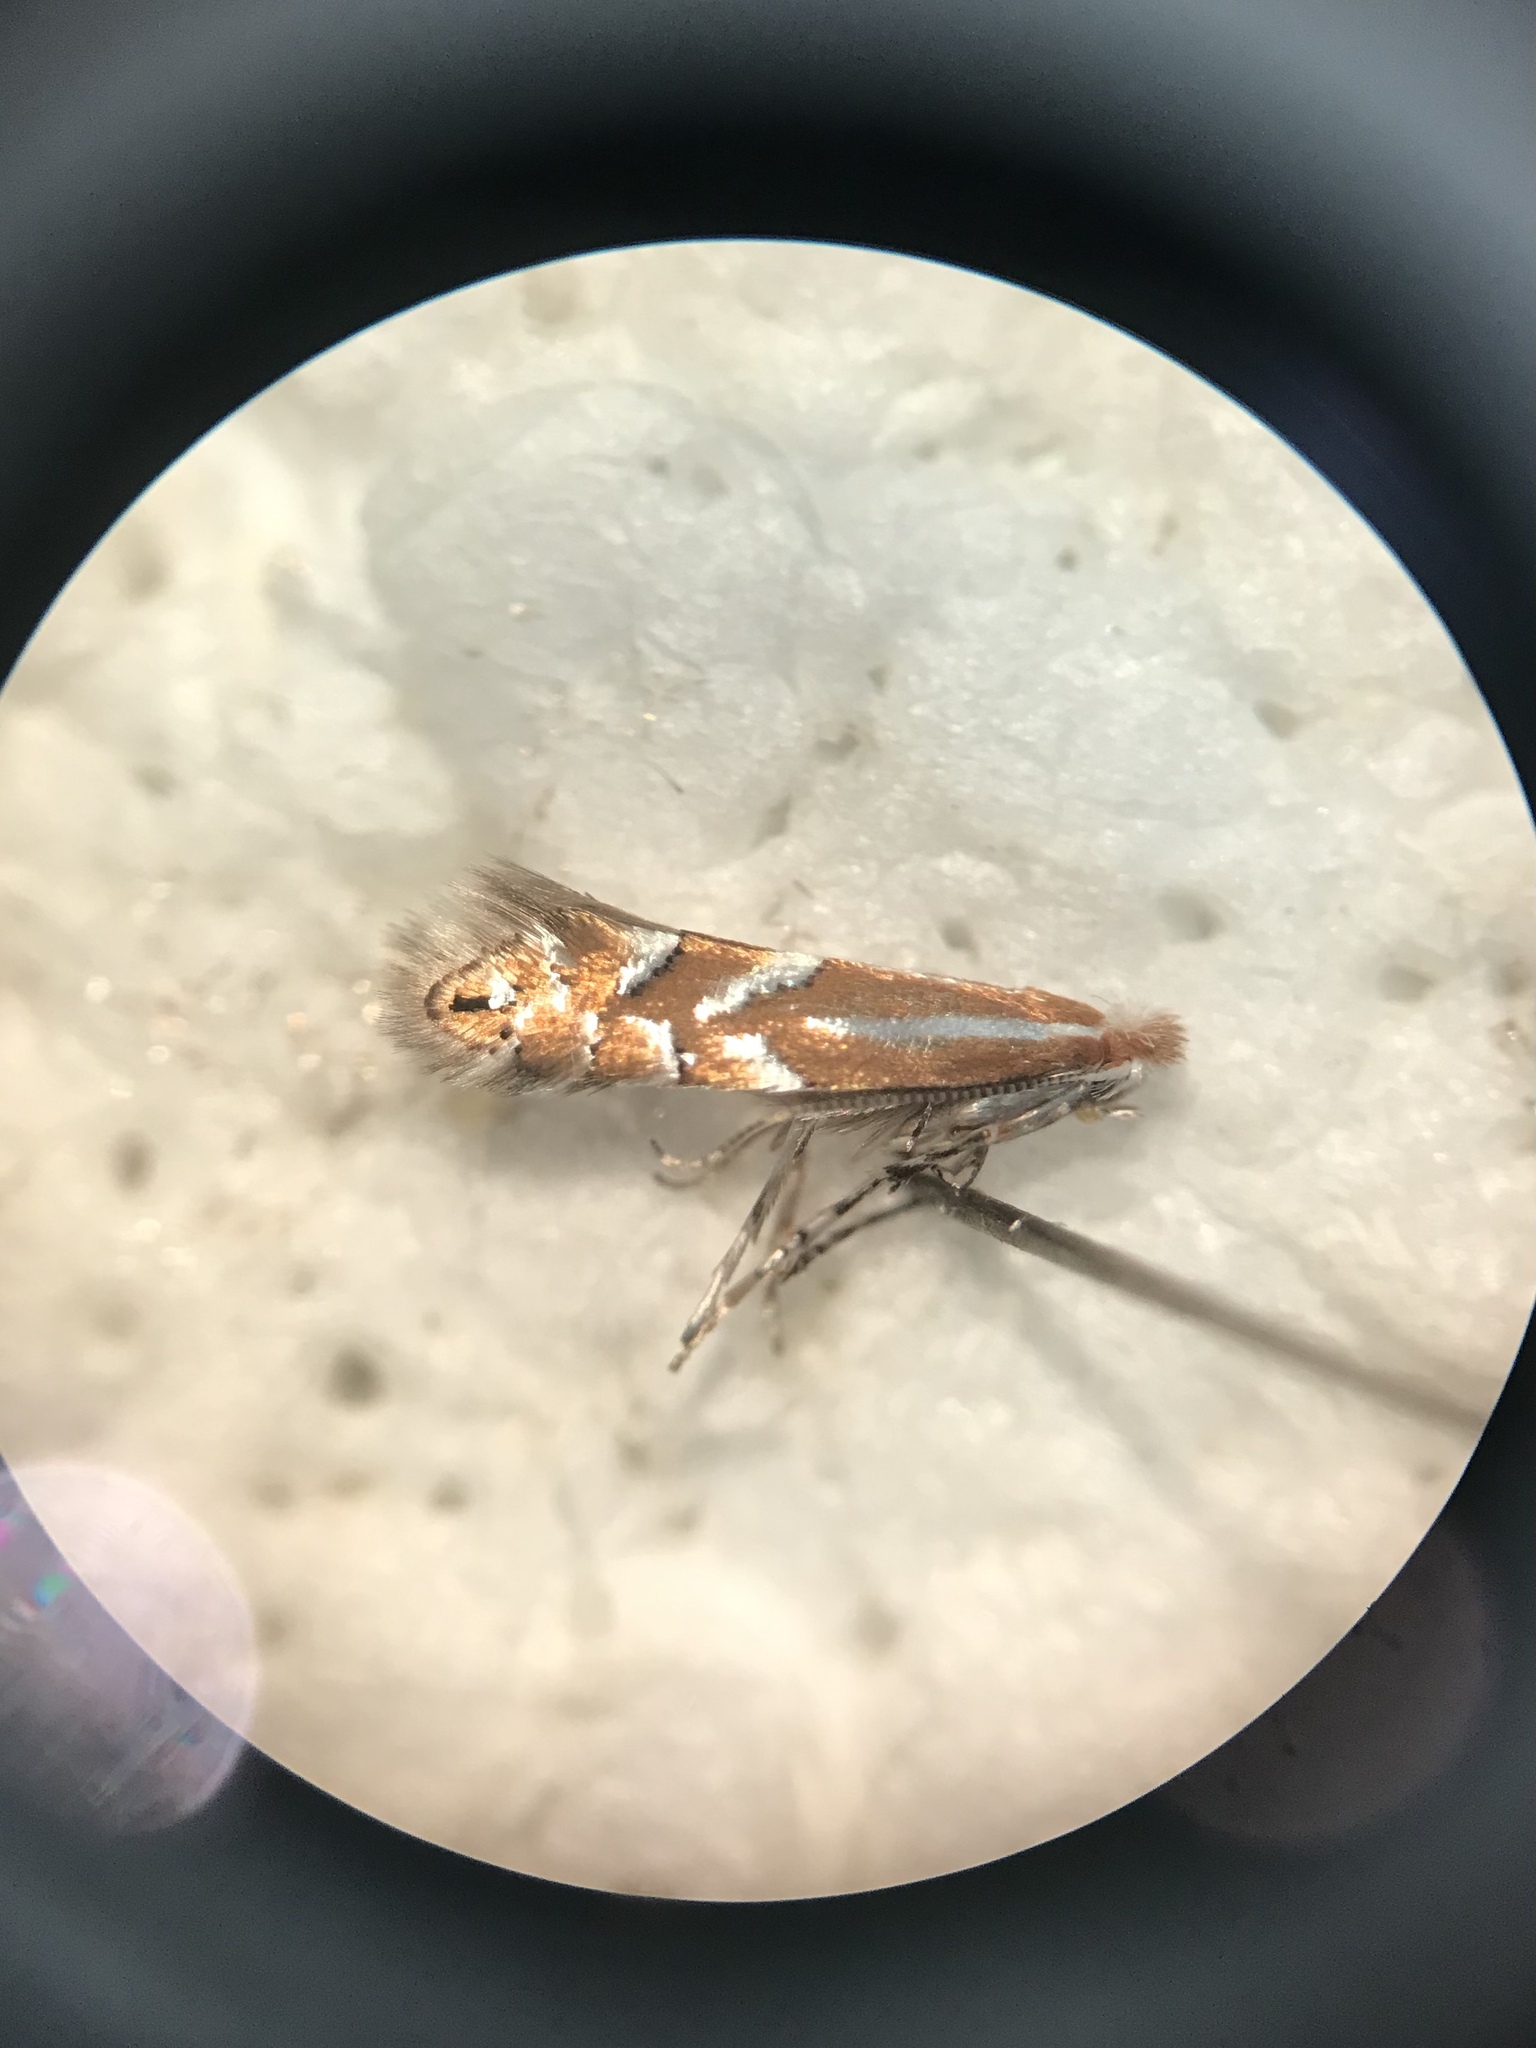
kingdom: Animalia
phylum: Arthropoda
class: Insecta
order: Lepidoptera
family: Gracillariidae
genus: Phyllonorycter
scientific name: Phyllonorycter alaskana
